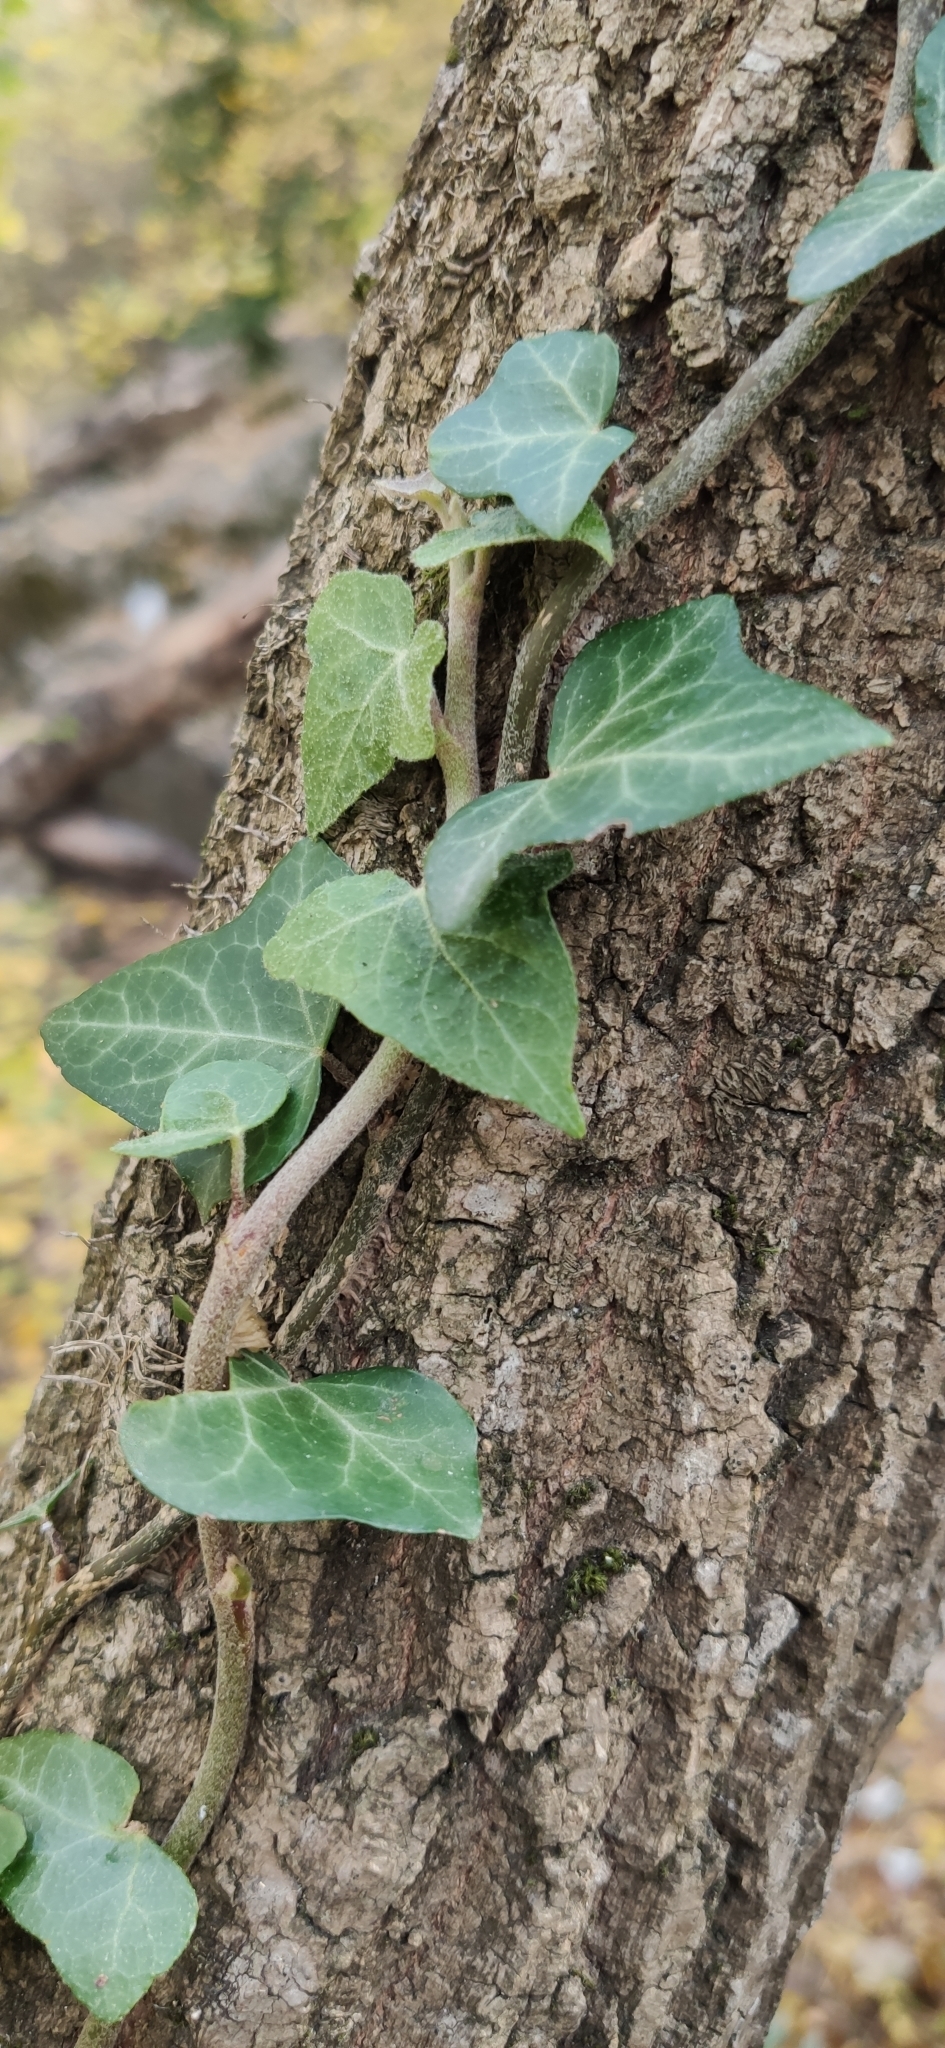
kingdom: Plantae
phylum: Tracheophyta
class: Magnoliopsida
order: Apiales
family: Araliaceae
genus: Hedera
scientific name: Hedera helix
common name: Ivy
